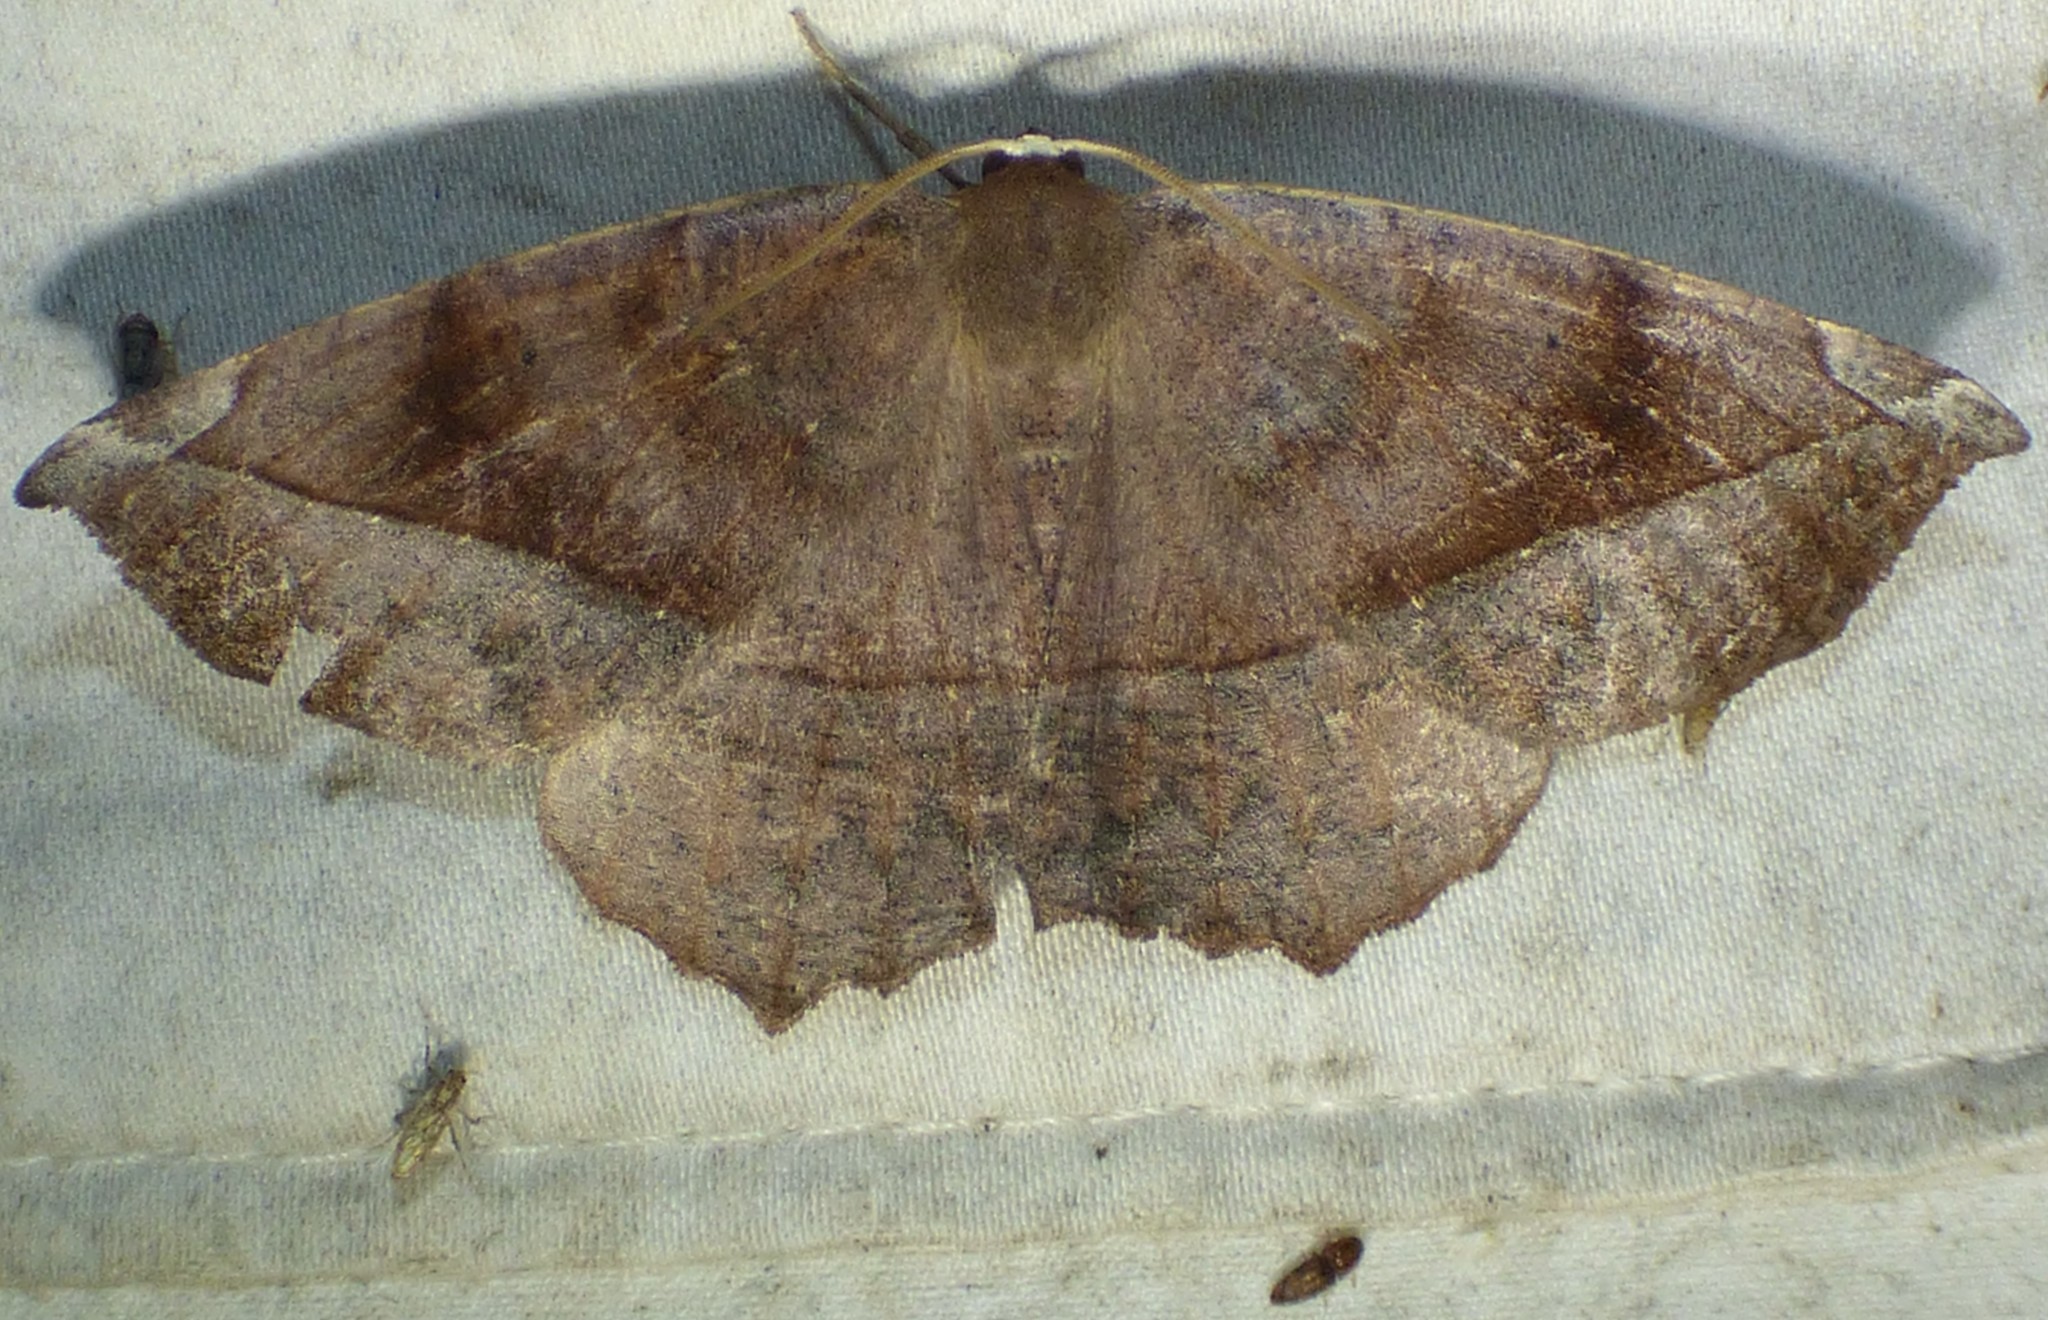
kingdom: Animalia
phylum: Arthropoda
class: Insecta
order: Coleoptera
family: Elateridae
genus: Monocrepidius
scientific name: Monocrepidius bellus
